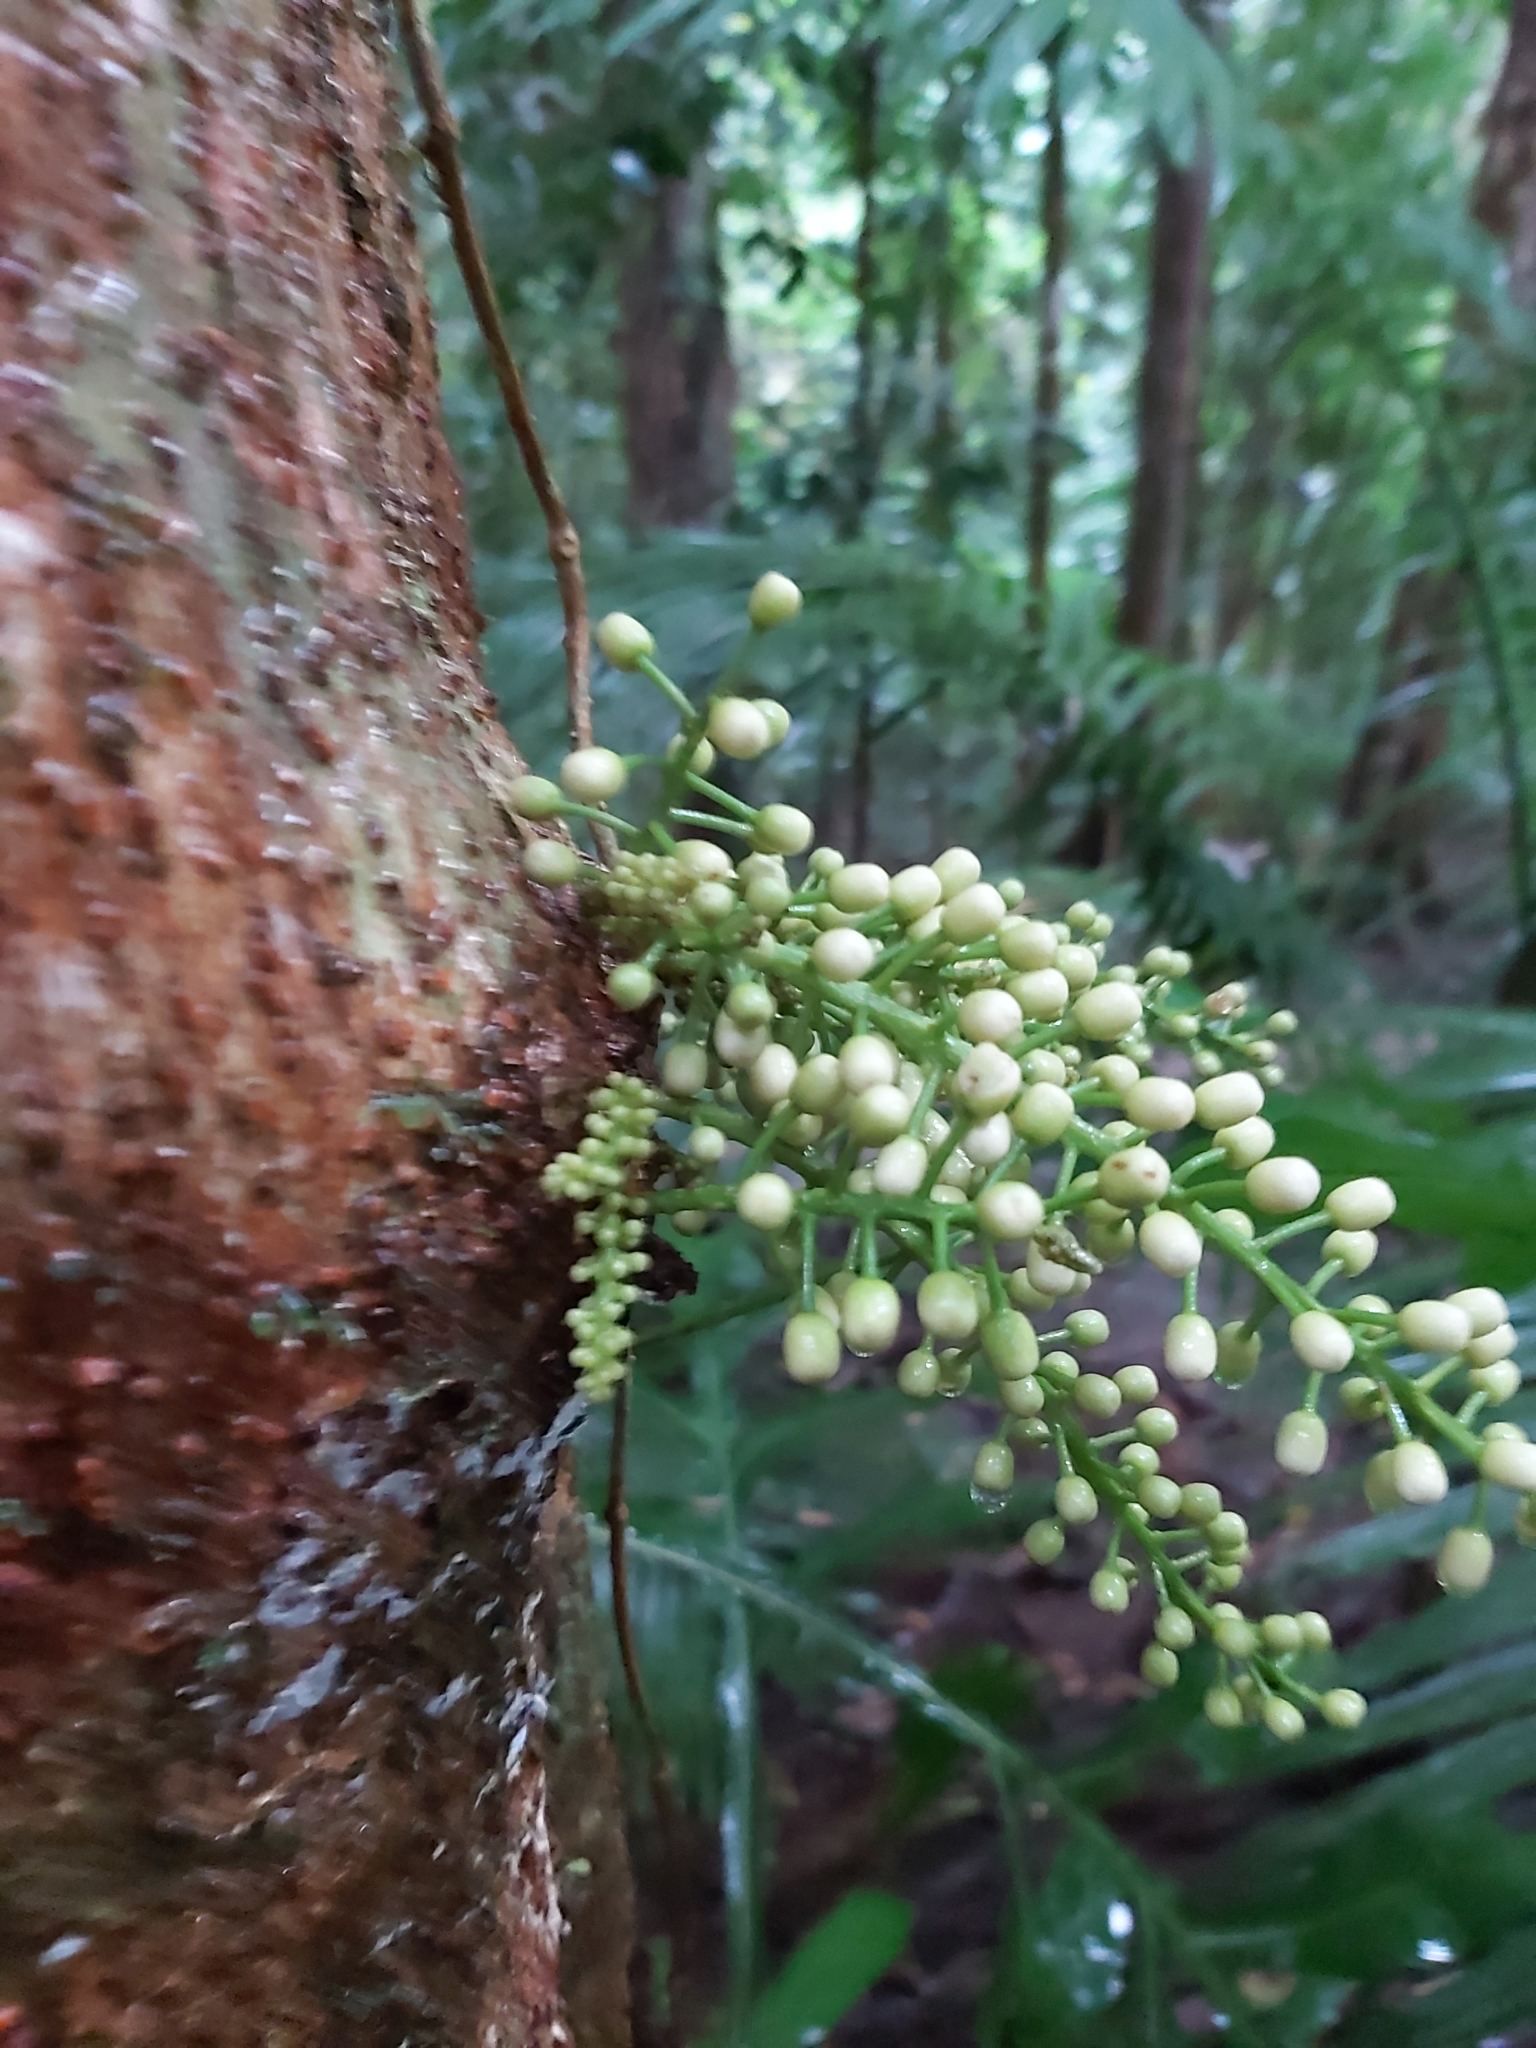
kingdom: Plantae
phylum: Tracheophyta
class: Magnoliopsida
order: Sapindales
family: Meliaceae
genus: Epicharis
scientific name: Epicharis parasitica
